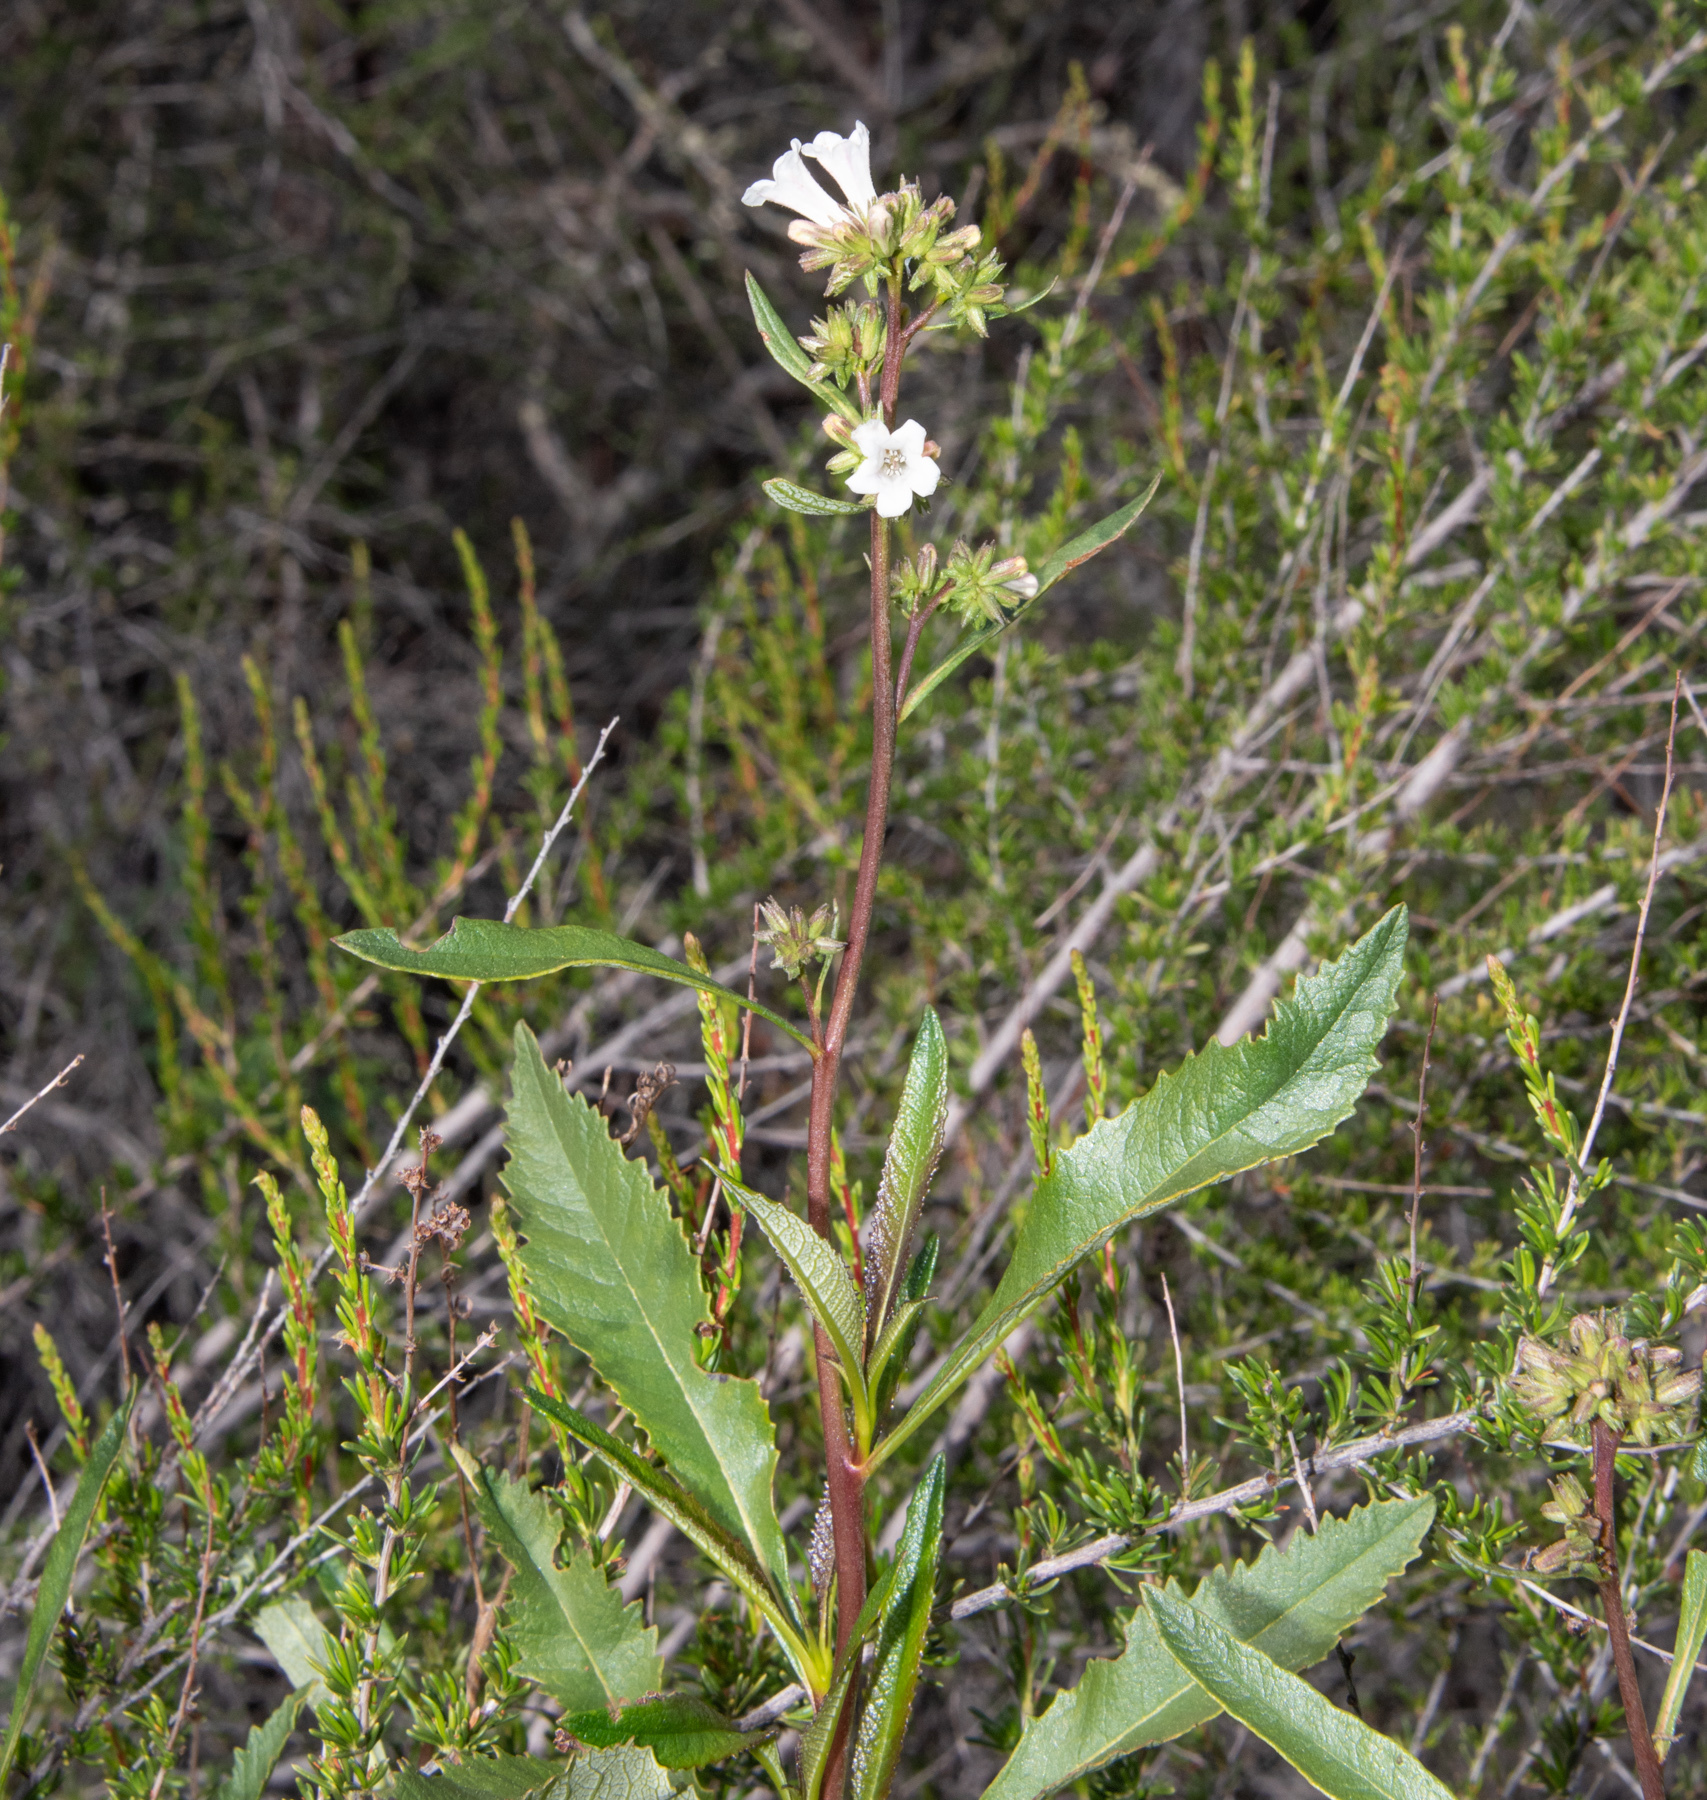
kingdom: Plantae
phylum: Tracheophyta
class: Magnoliopsida
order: Boraginales
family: Namaceae
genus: Eriodictyon
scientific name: Eriodictyon californicum
